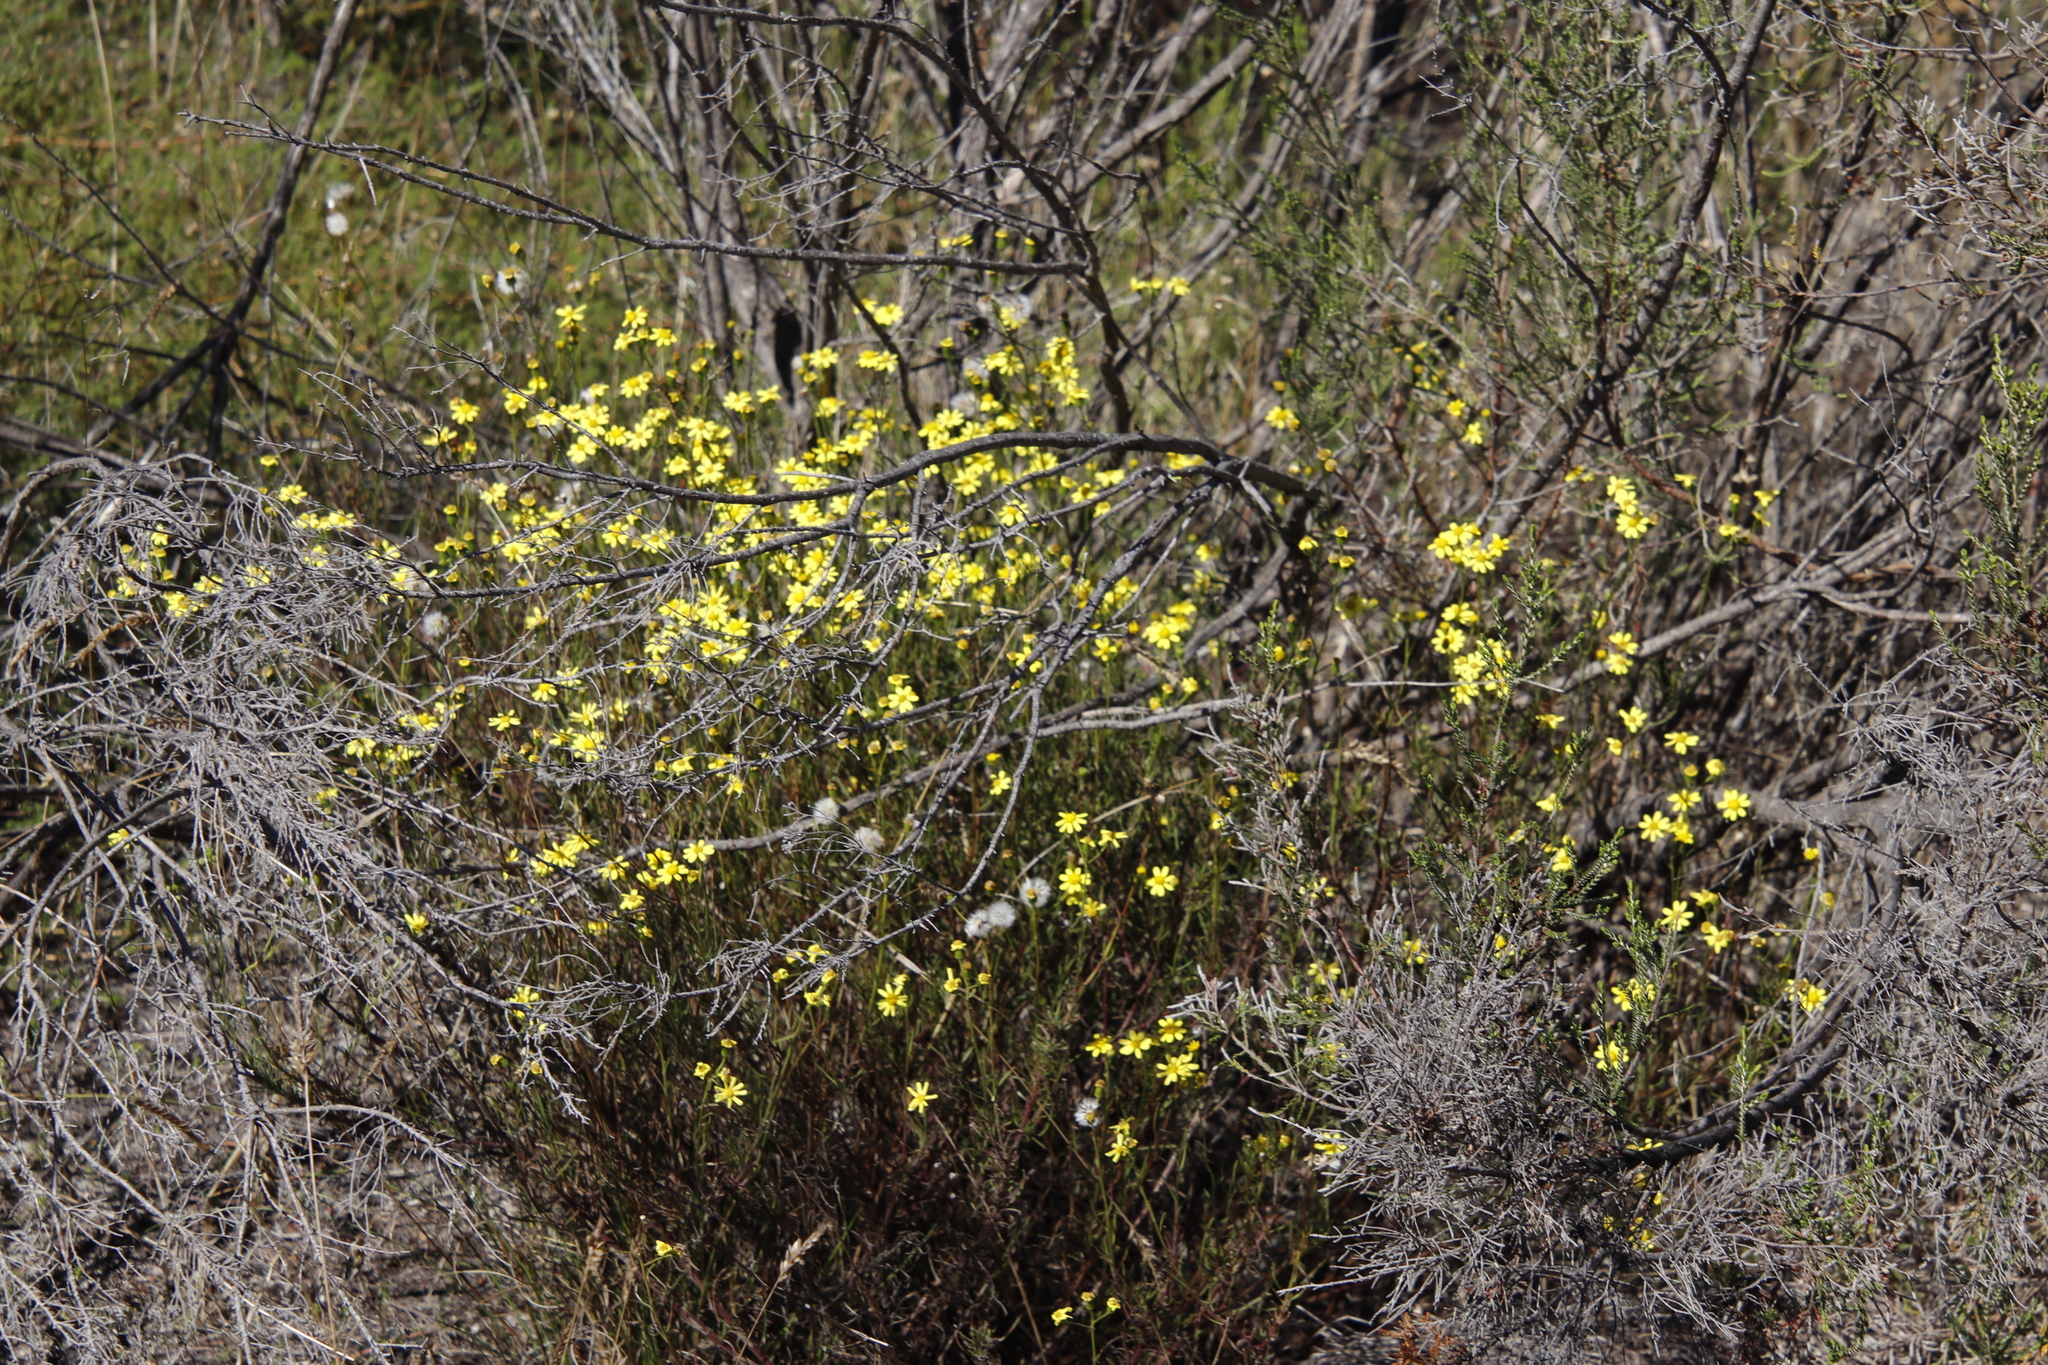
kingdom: Plantae
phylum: Tracheophyta
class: Magnoliopsida
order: Asterales
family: Asteraceae
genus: Senecio
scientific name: Senecio burchellii
